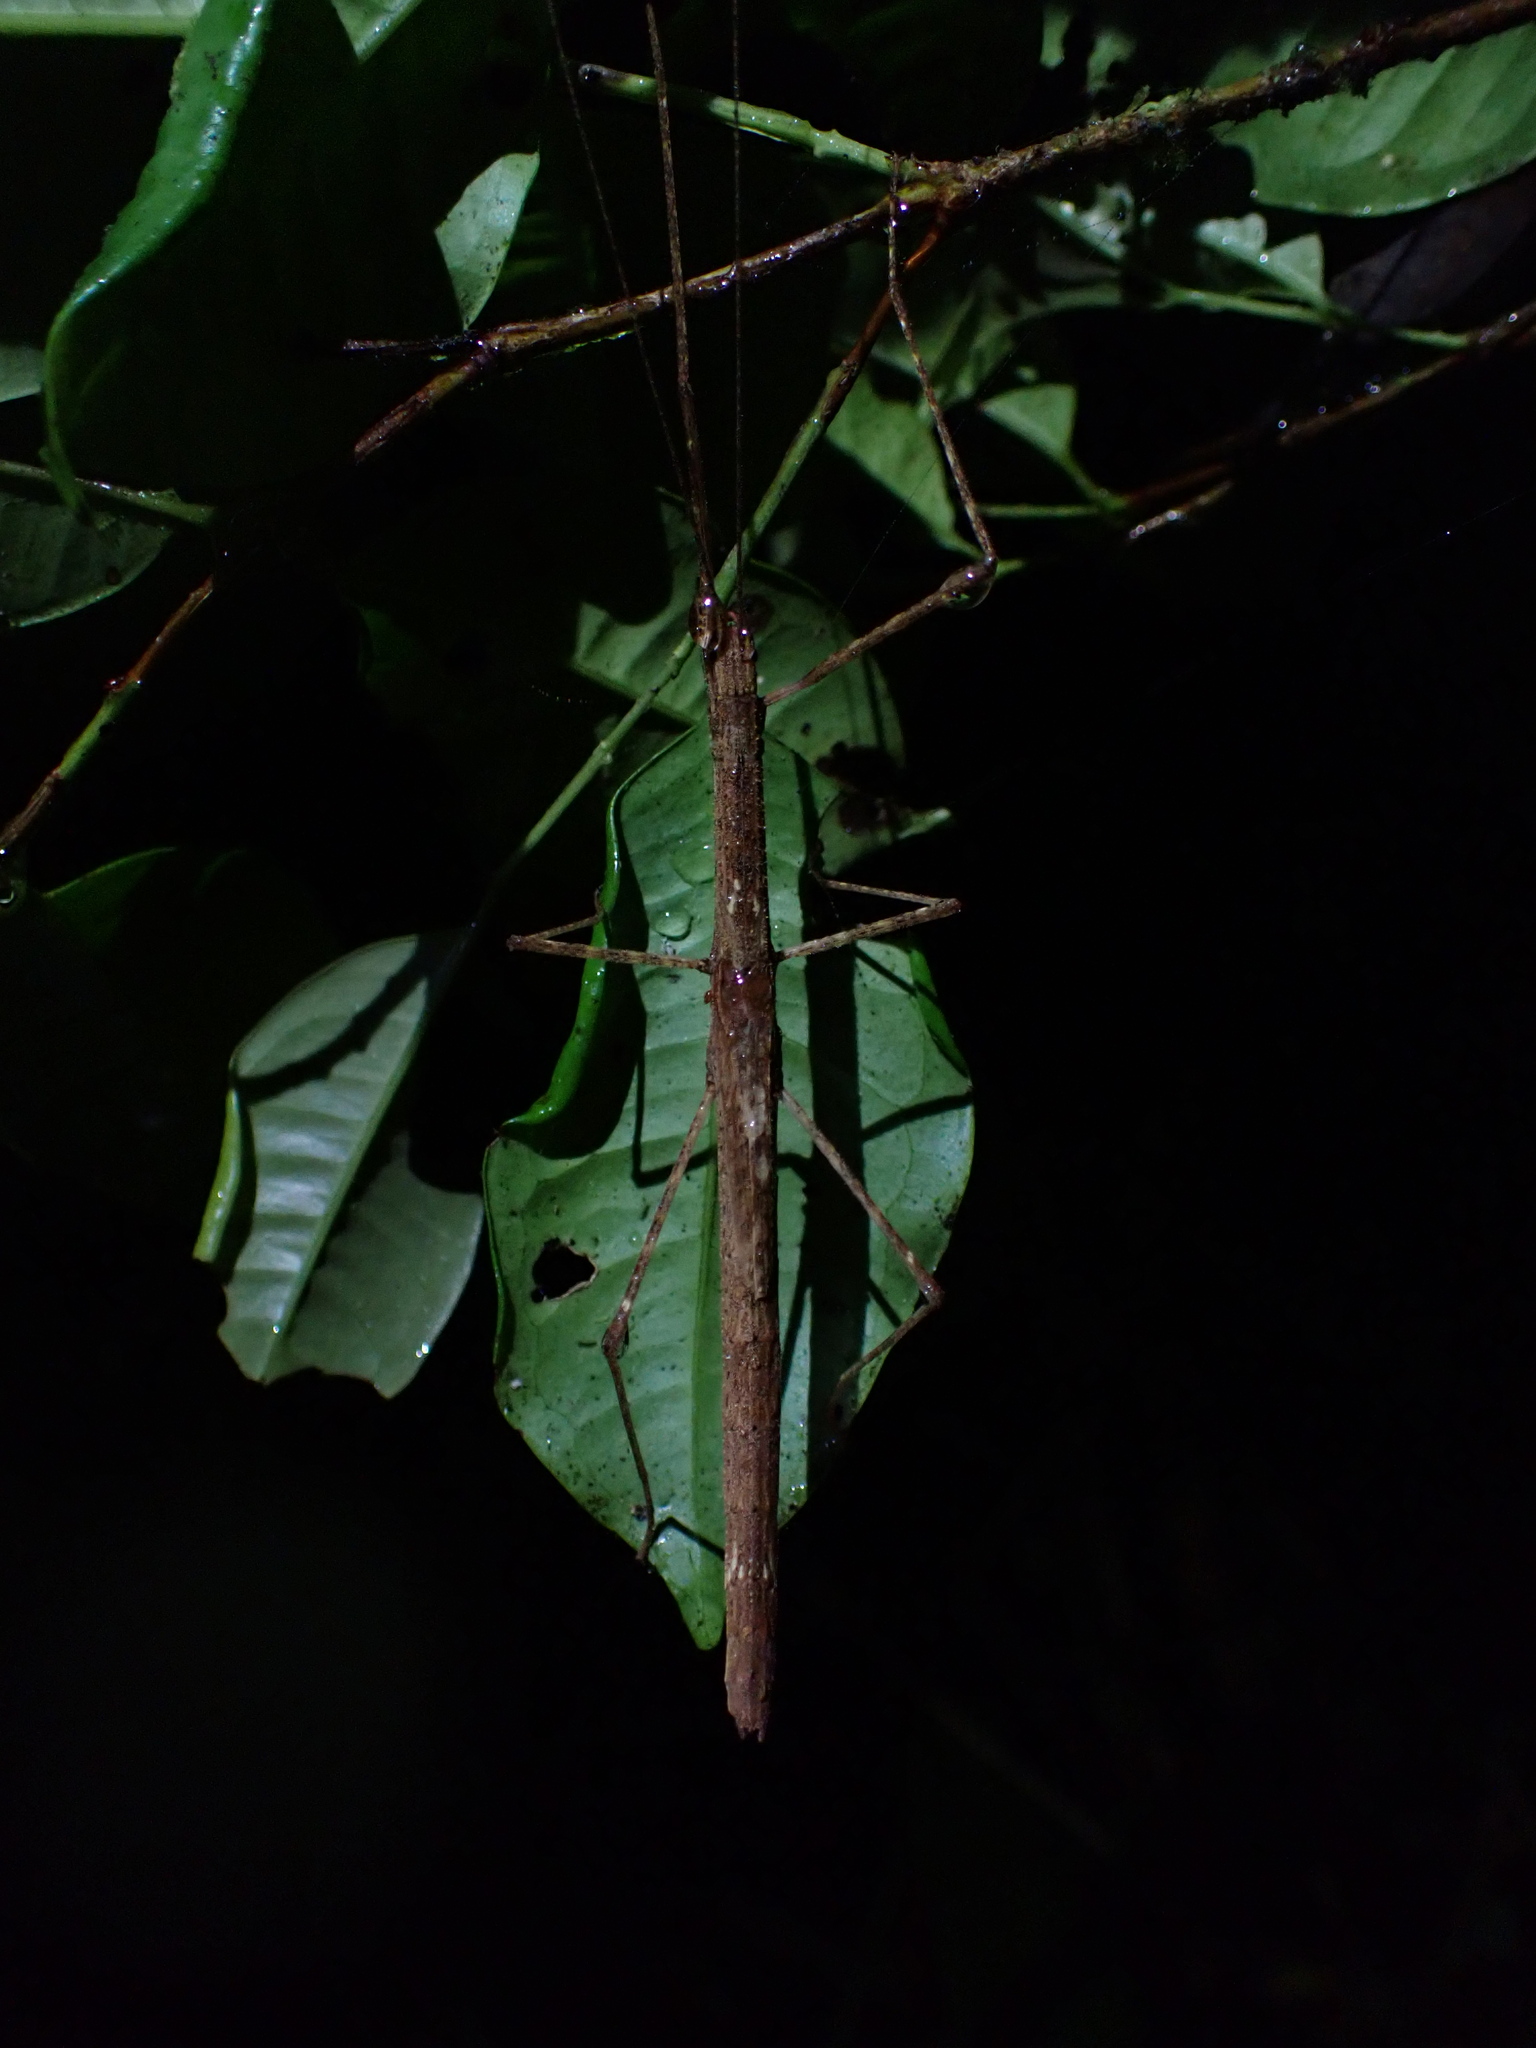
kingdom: Animalia
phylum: Arthropoda
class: Insecta
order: Phasmida
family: Lonchodidae
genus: Sipyloidea
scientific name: Sipyloidea lewisensis
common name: Mt. lewis winged stick-insect
